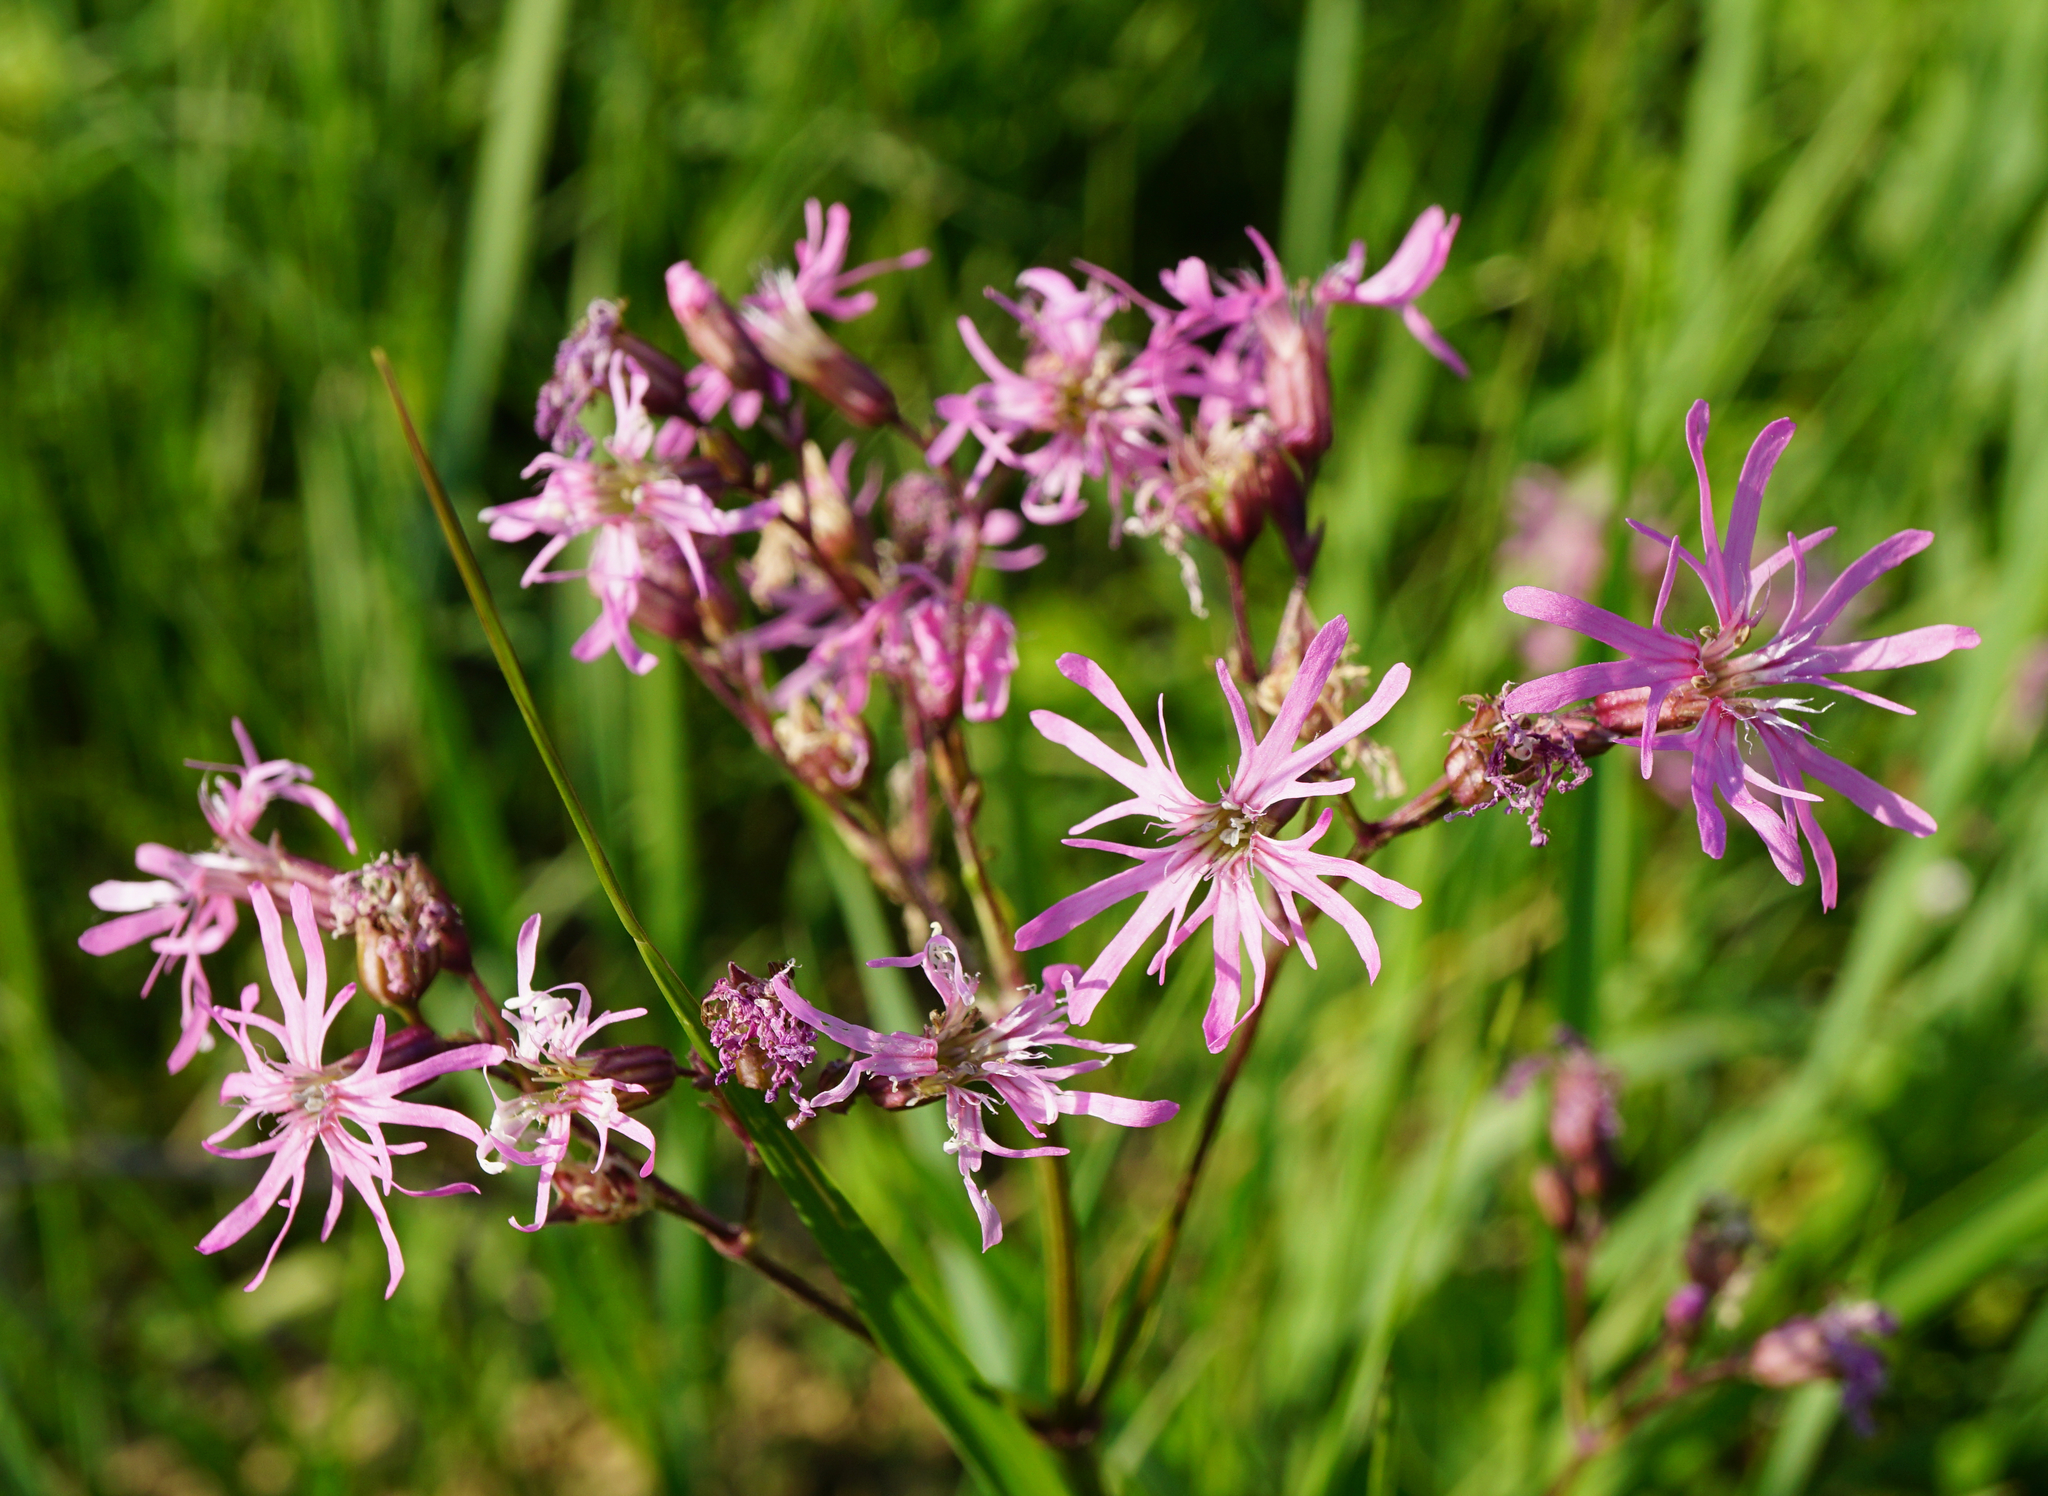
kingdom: Plantae
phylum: Tracheophyta
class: Magnoliopsida
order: Caryophyllales
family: Caryophyllaceae
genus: Silene
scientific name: Silene flos-cuculi
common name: Ragged-robin
